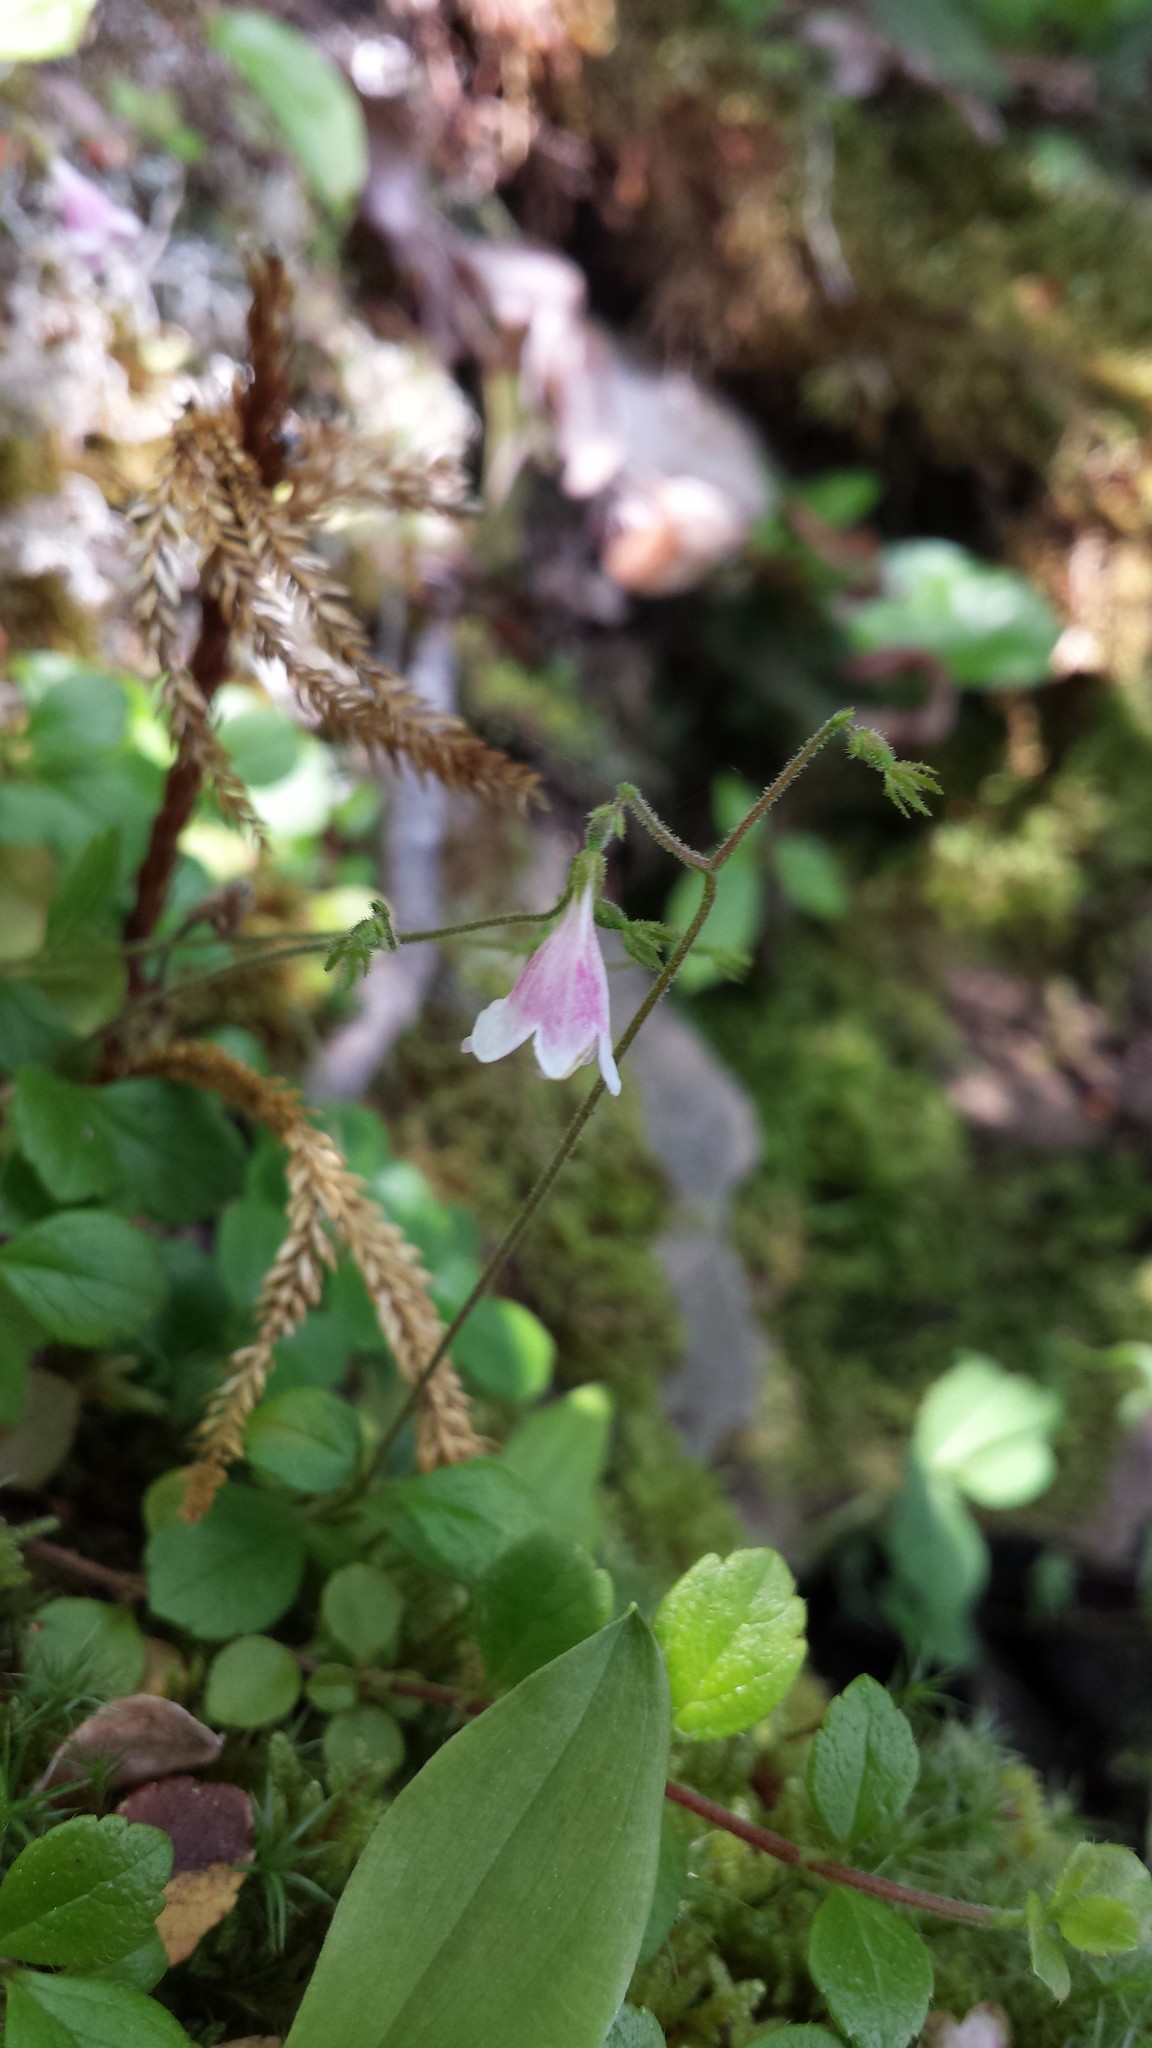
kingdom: Plantae
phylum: Tracheophyta
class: Magnoliopsida
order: Dipsacales
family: Caprifoliaceae
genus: Linnaea
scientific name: Linnaea borealis
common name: Twinflower
